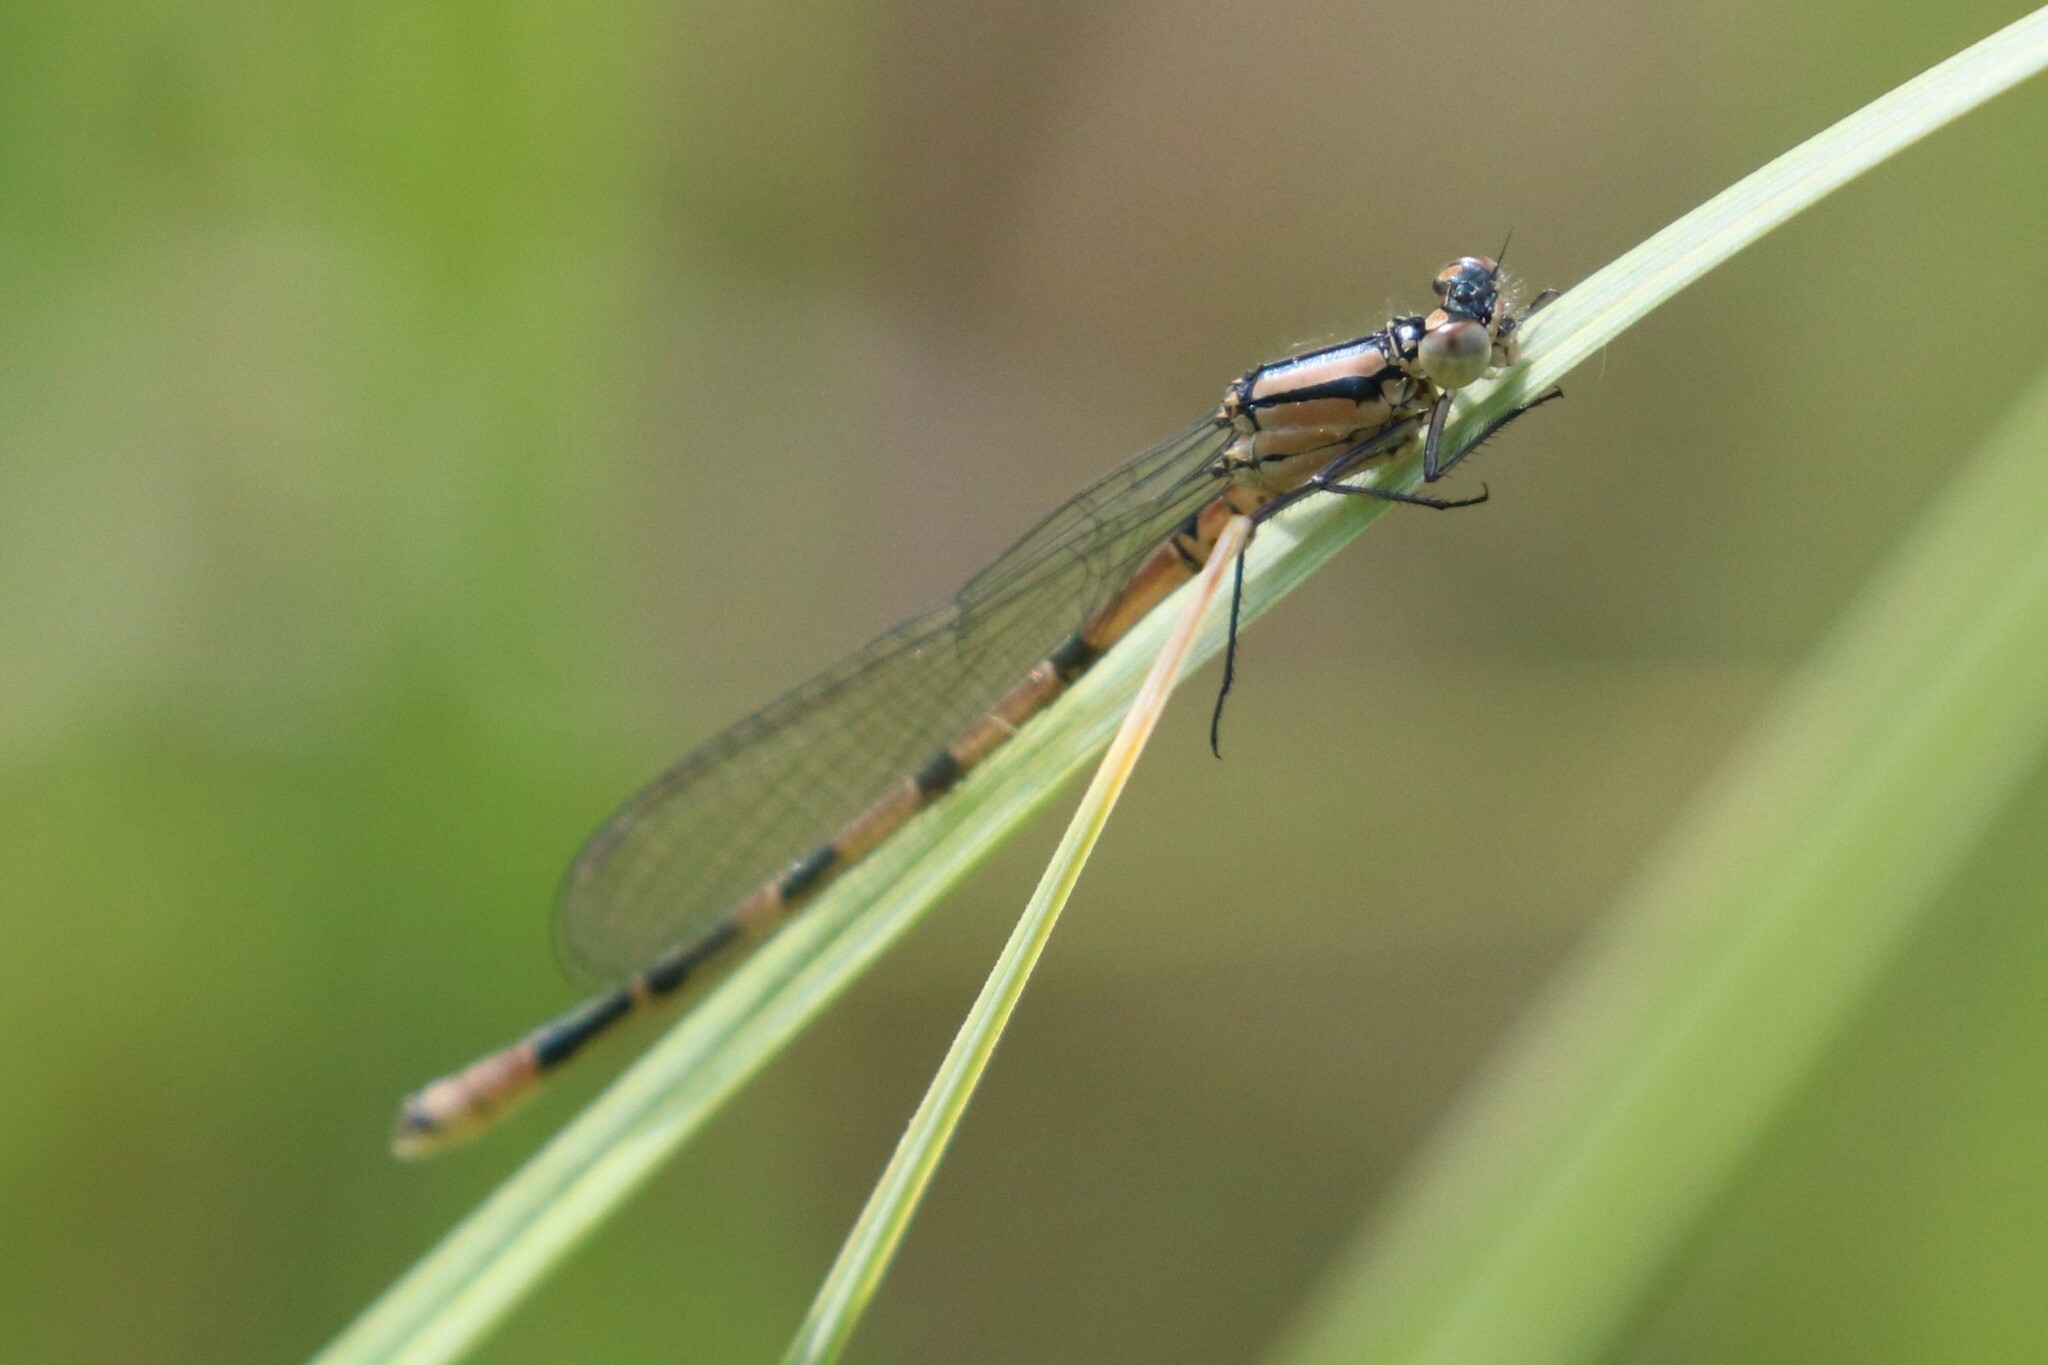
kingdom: Animalia
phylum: Arthropoda
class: Insecta
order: Odonata
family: Coenagrionidae
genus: Enallagma
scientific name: Enallagma cyathigerum
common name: Common blue damselfly
